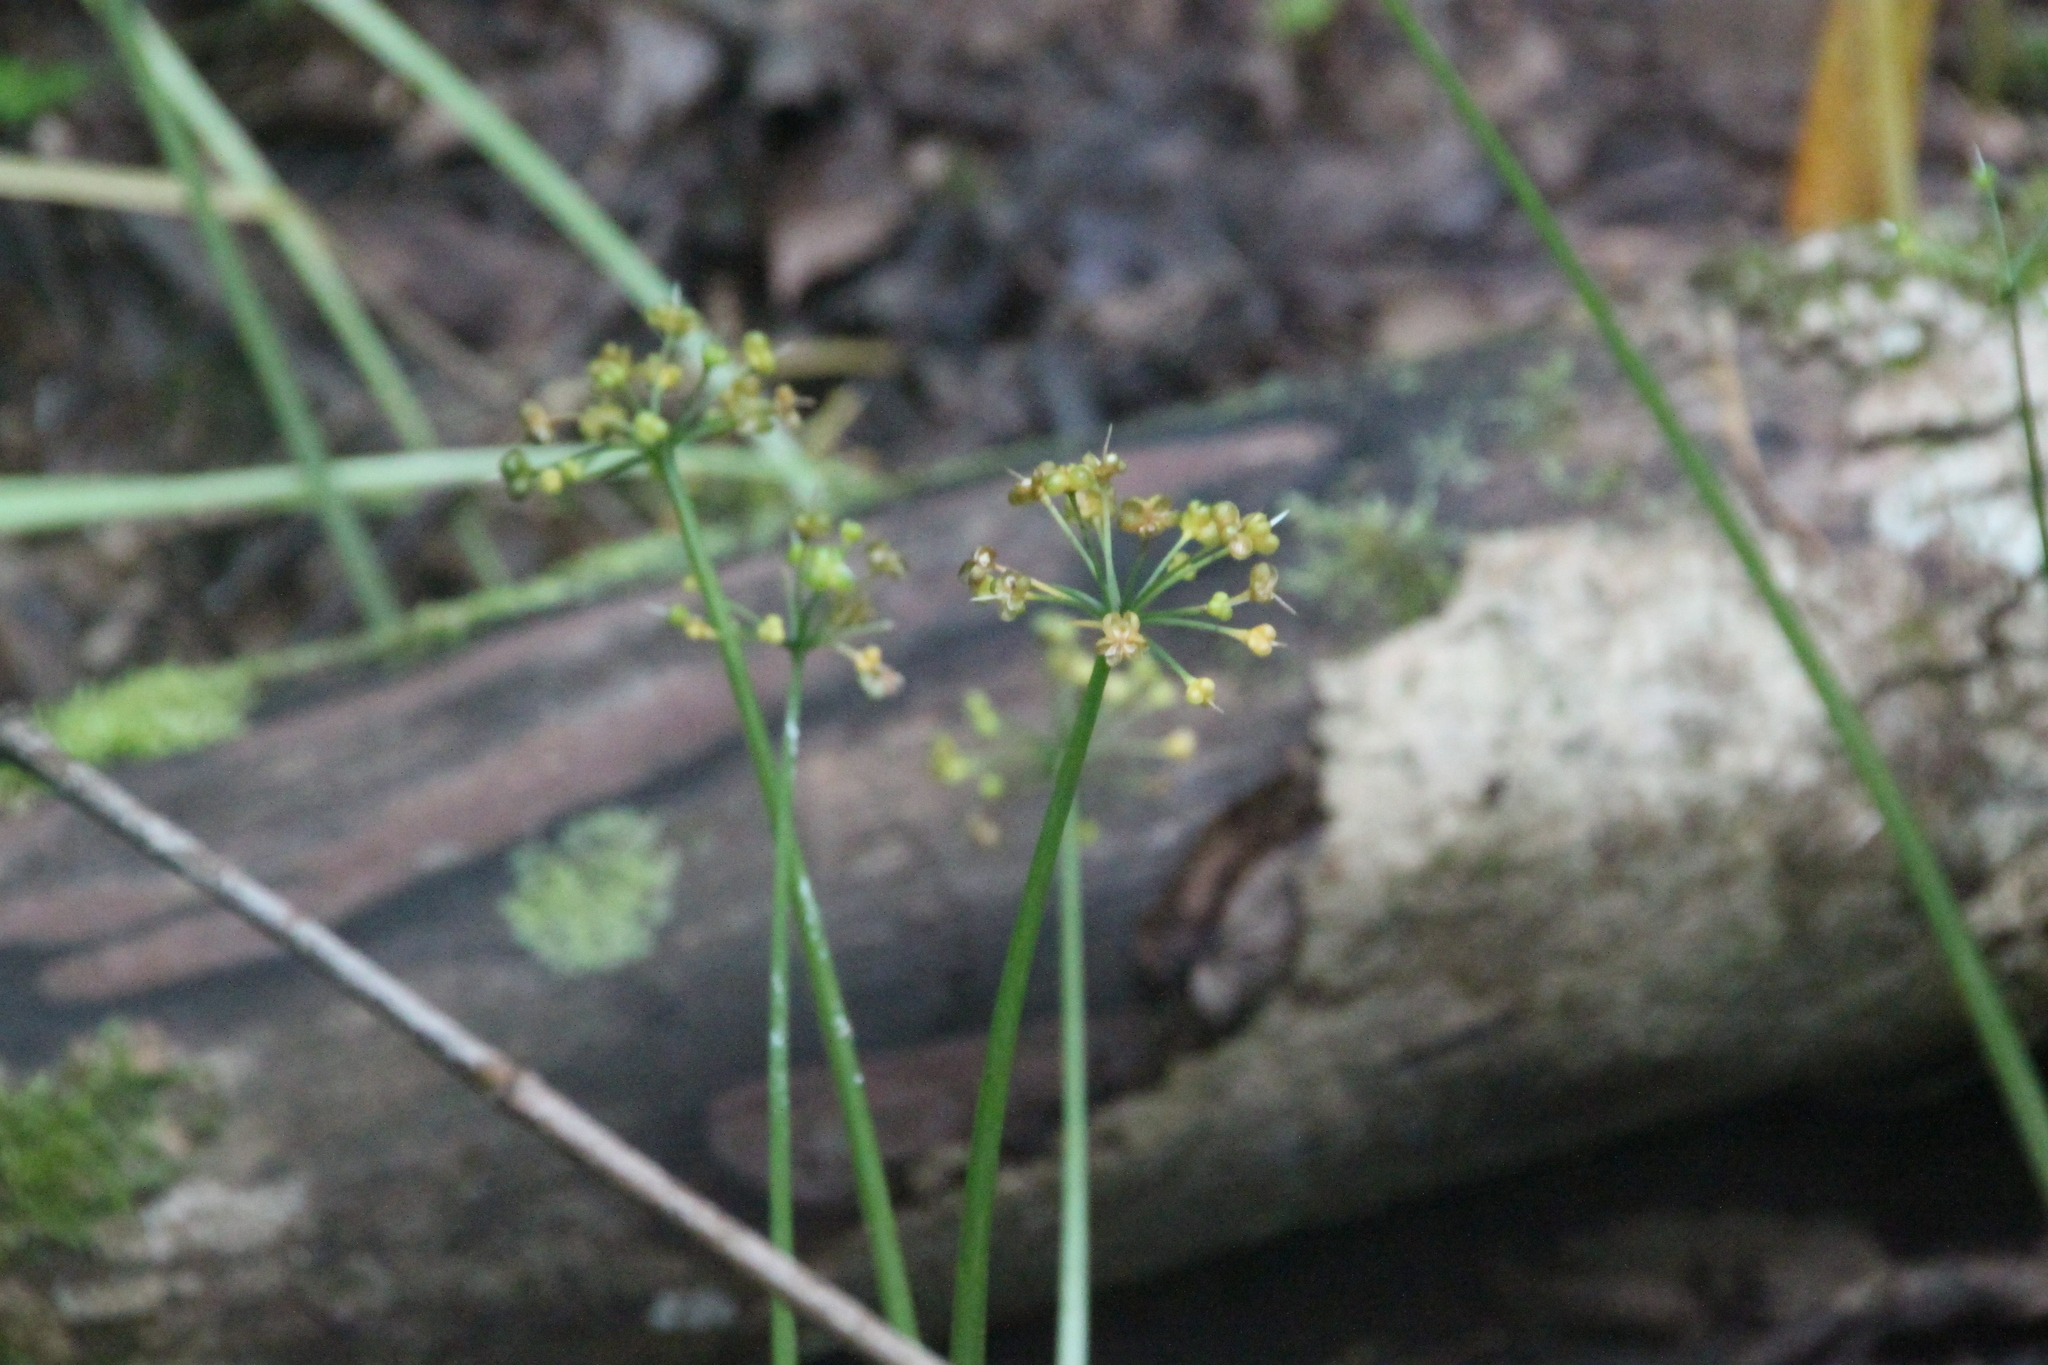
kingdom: Plantae
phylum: Tracheophyta
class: Liliopsida
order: Asparagales
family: Amaryllidaceae
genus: Allium
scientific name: Allium ursinum
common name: Ramsons
